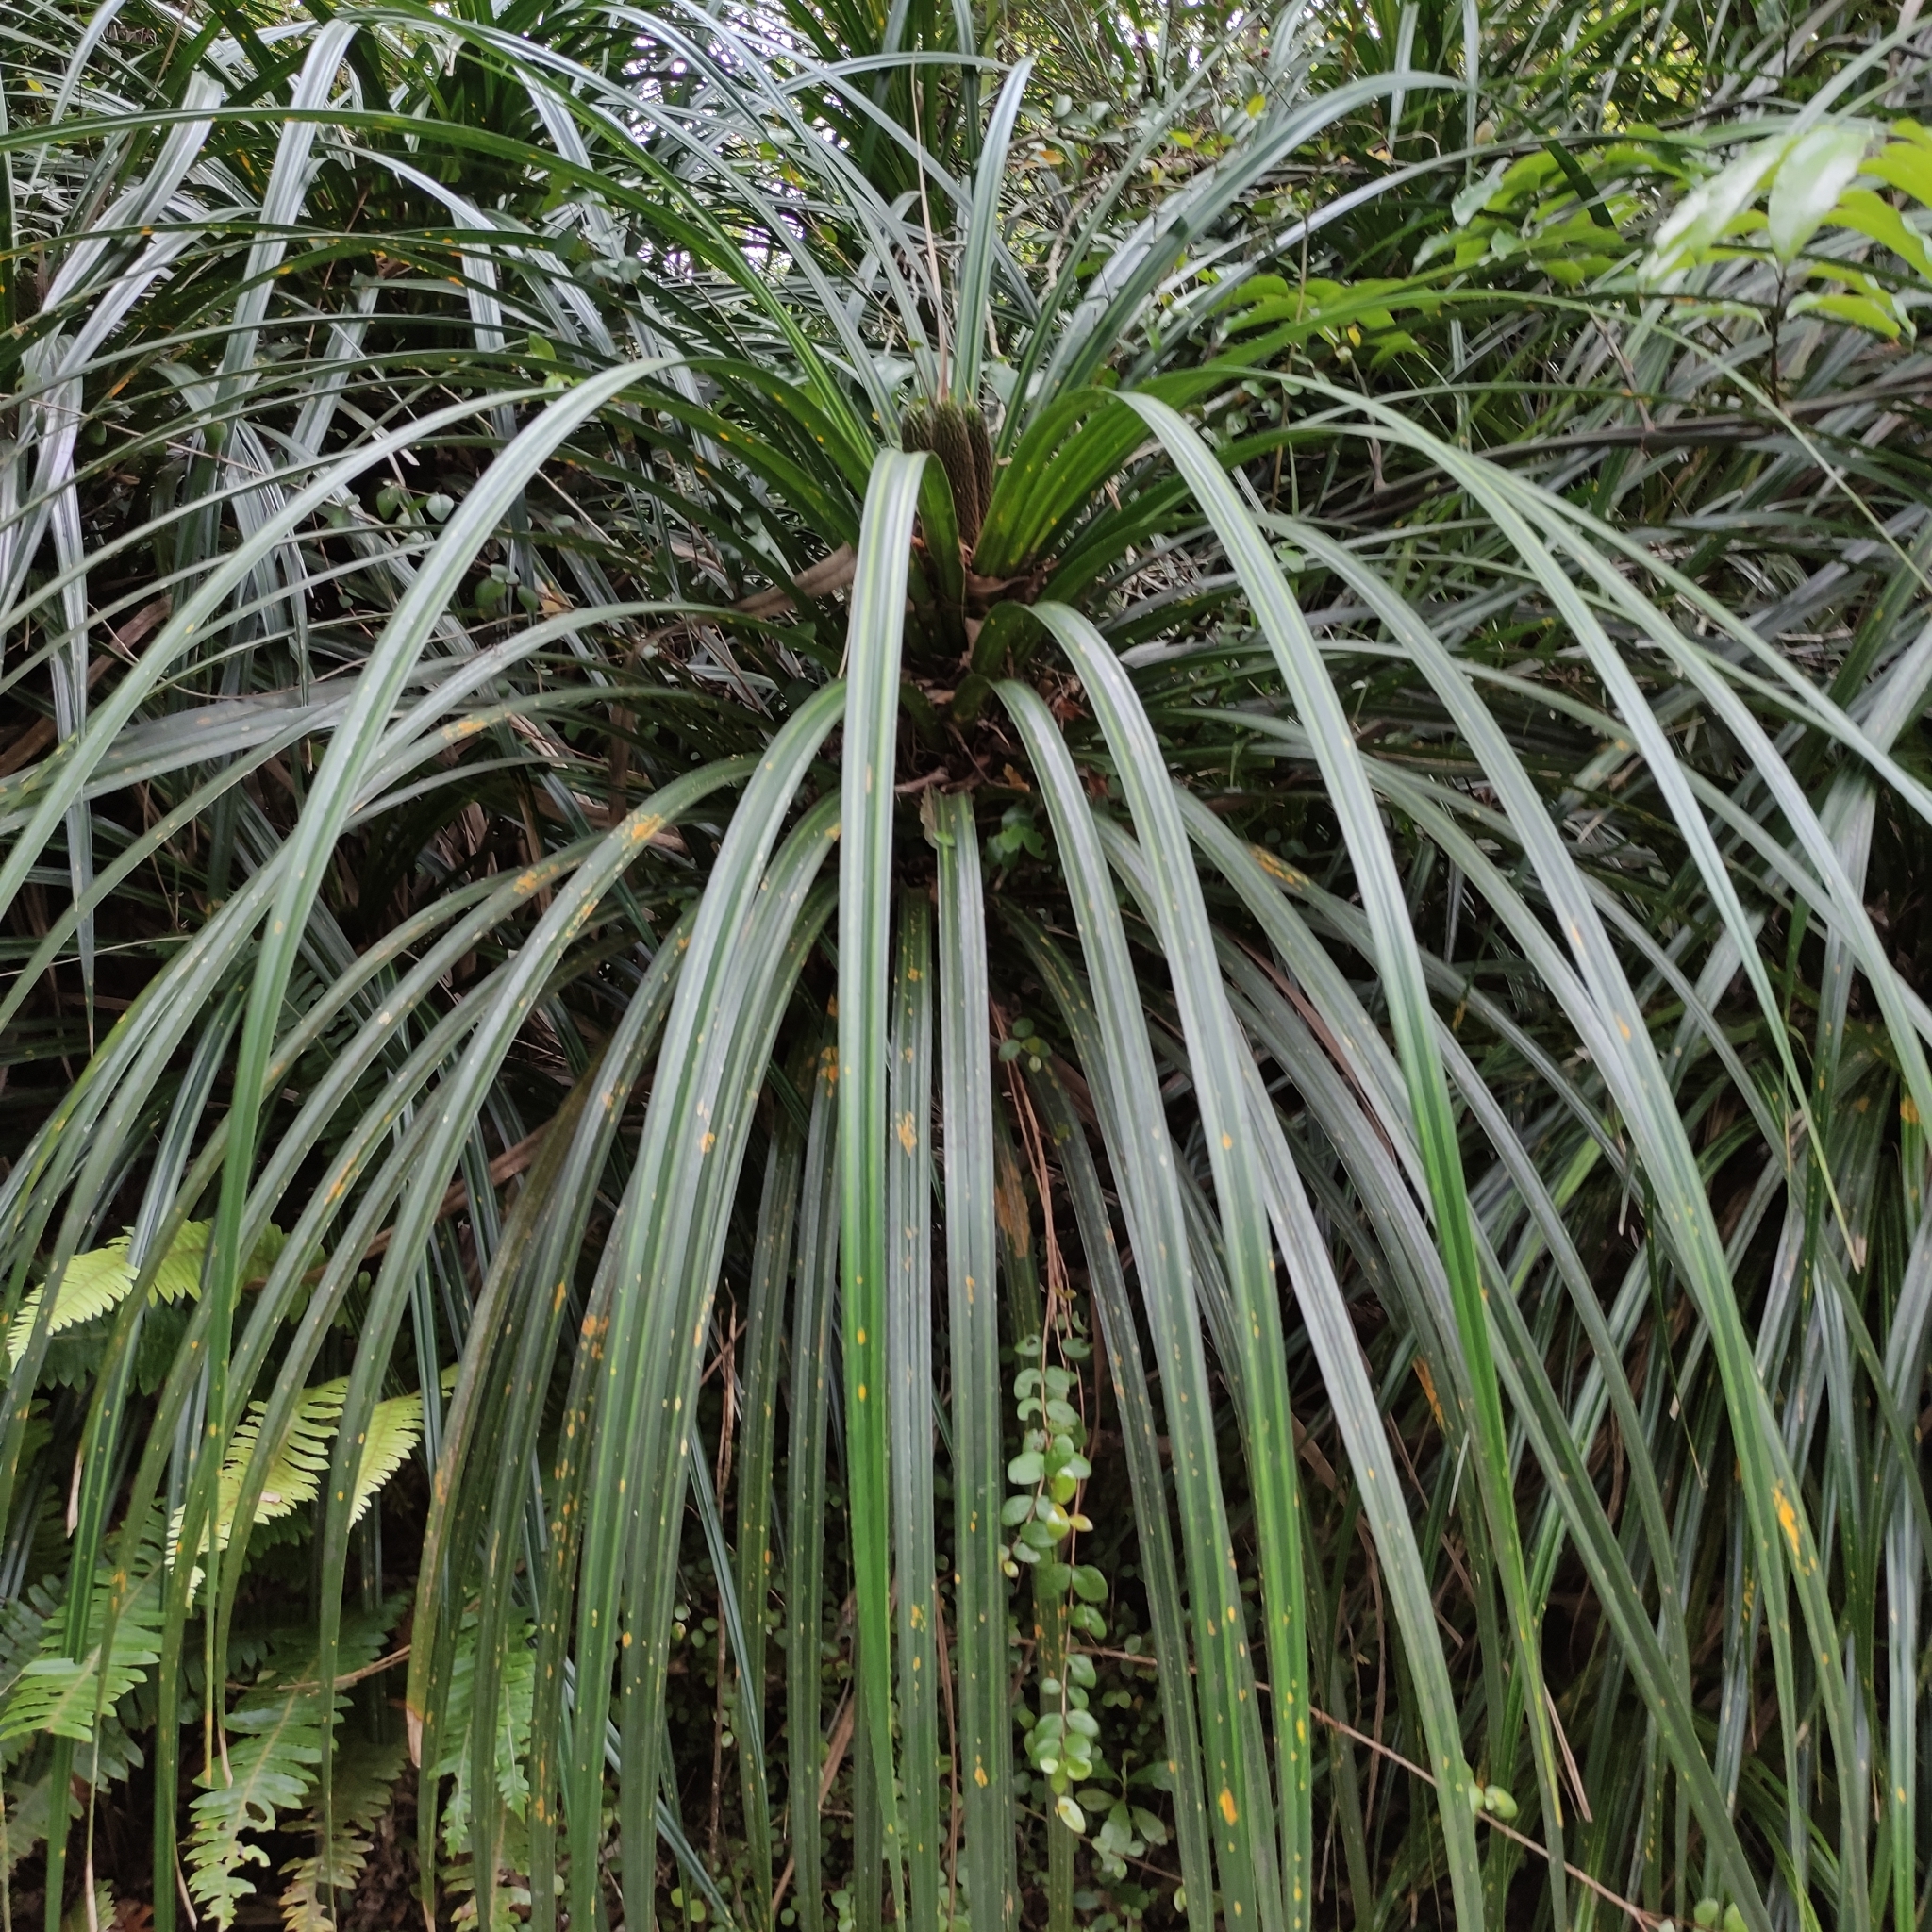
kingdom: Plantae
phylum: Tracheophyta
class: Liliopsida
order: Pandanales
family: Pandanaceae
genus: Freycinetia
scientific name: Freycinetia banksii
